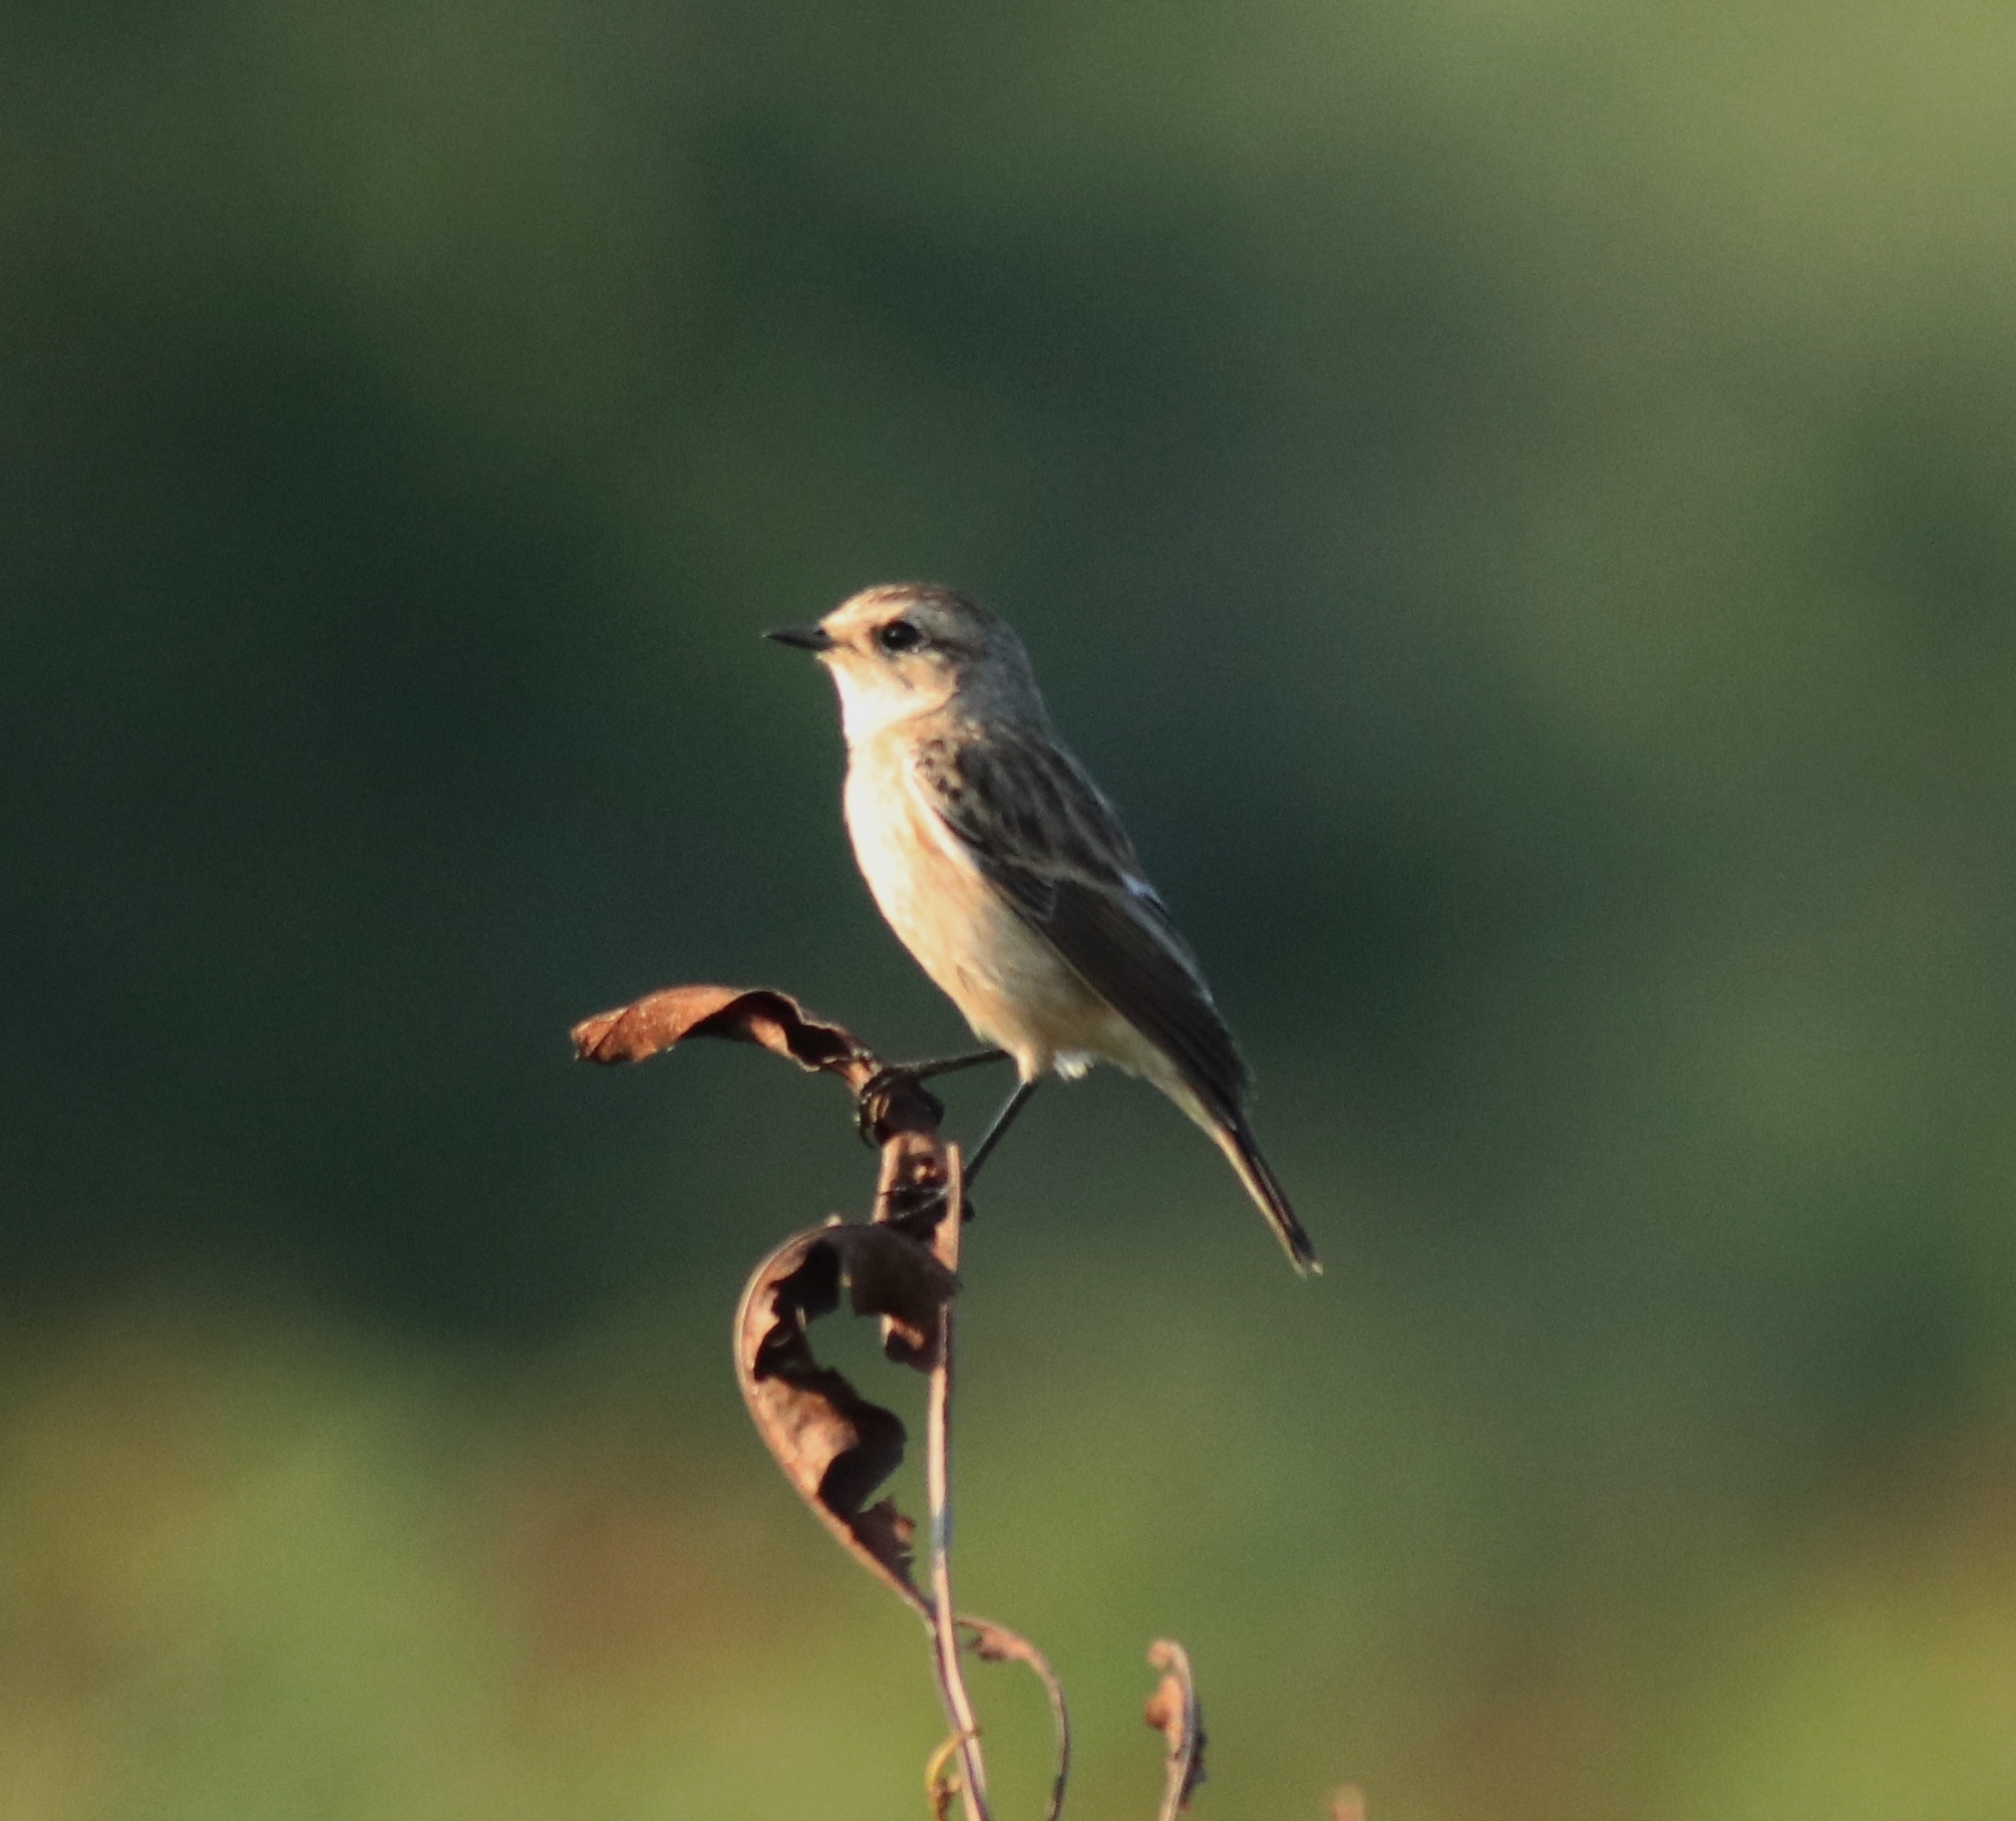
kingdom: Animalia
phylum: Chordata
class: Aves
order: Passeriformes
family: Muscicapidae
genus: Saxicola
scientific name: Saxicola maurus
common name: Siberian stonechat
